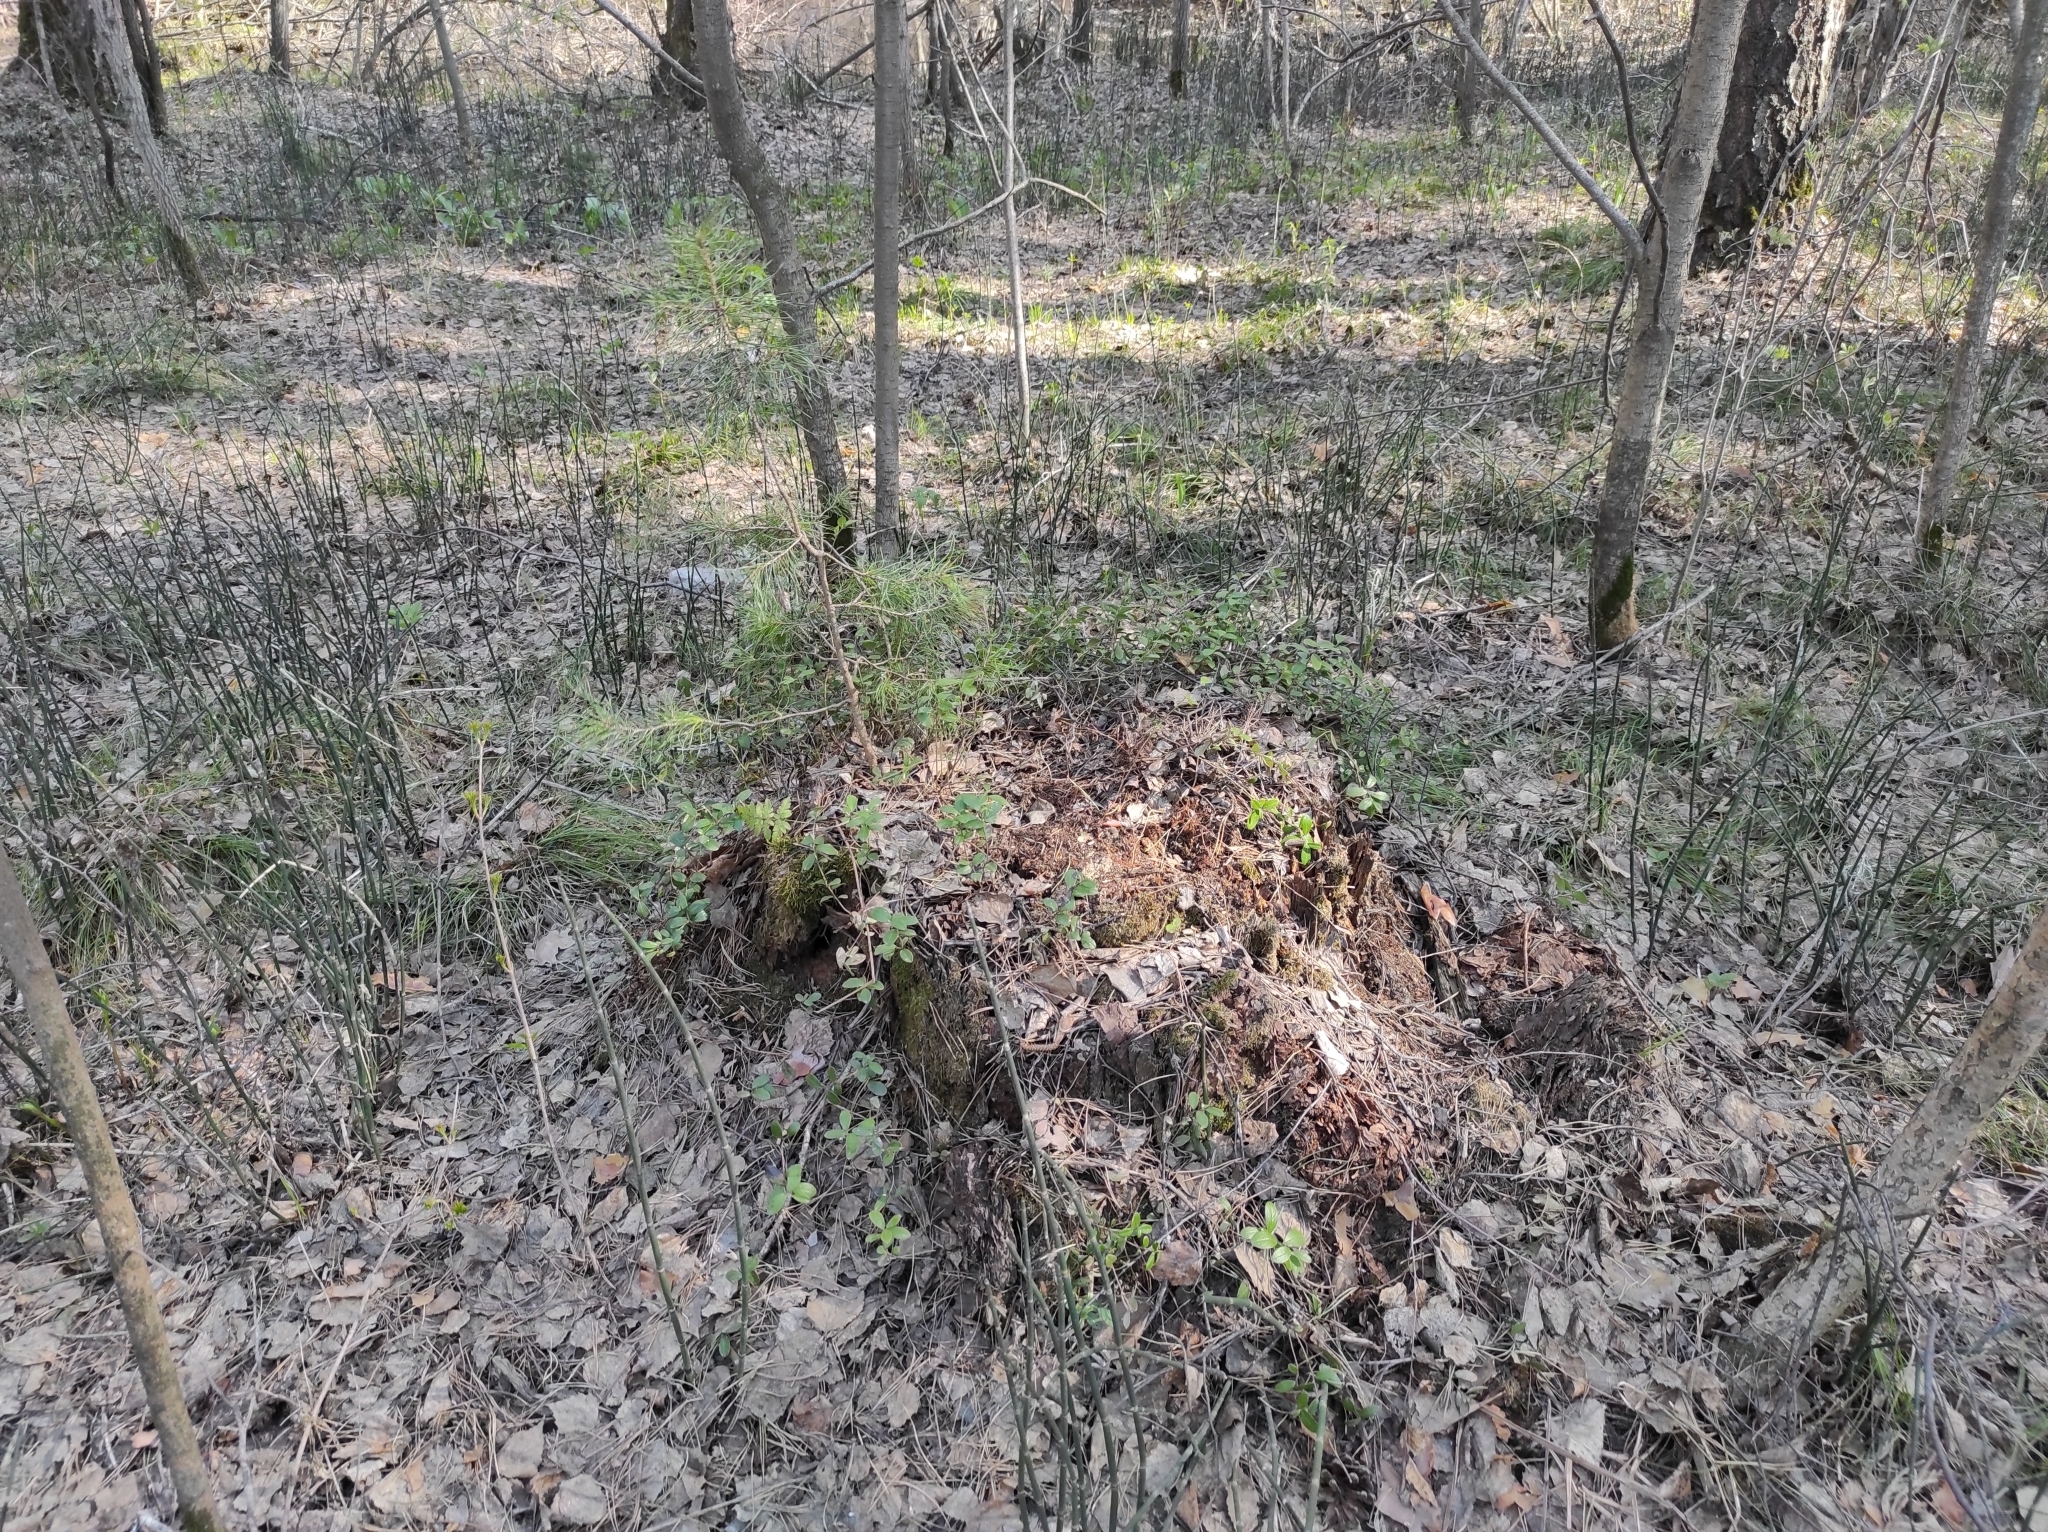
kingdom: Plantae
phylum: Tracheophyta
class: Pinopsida
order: Pinales
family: Pinaceae
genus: Pinus
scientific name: Pinus sylvestris
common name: Scots pine
